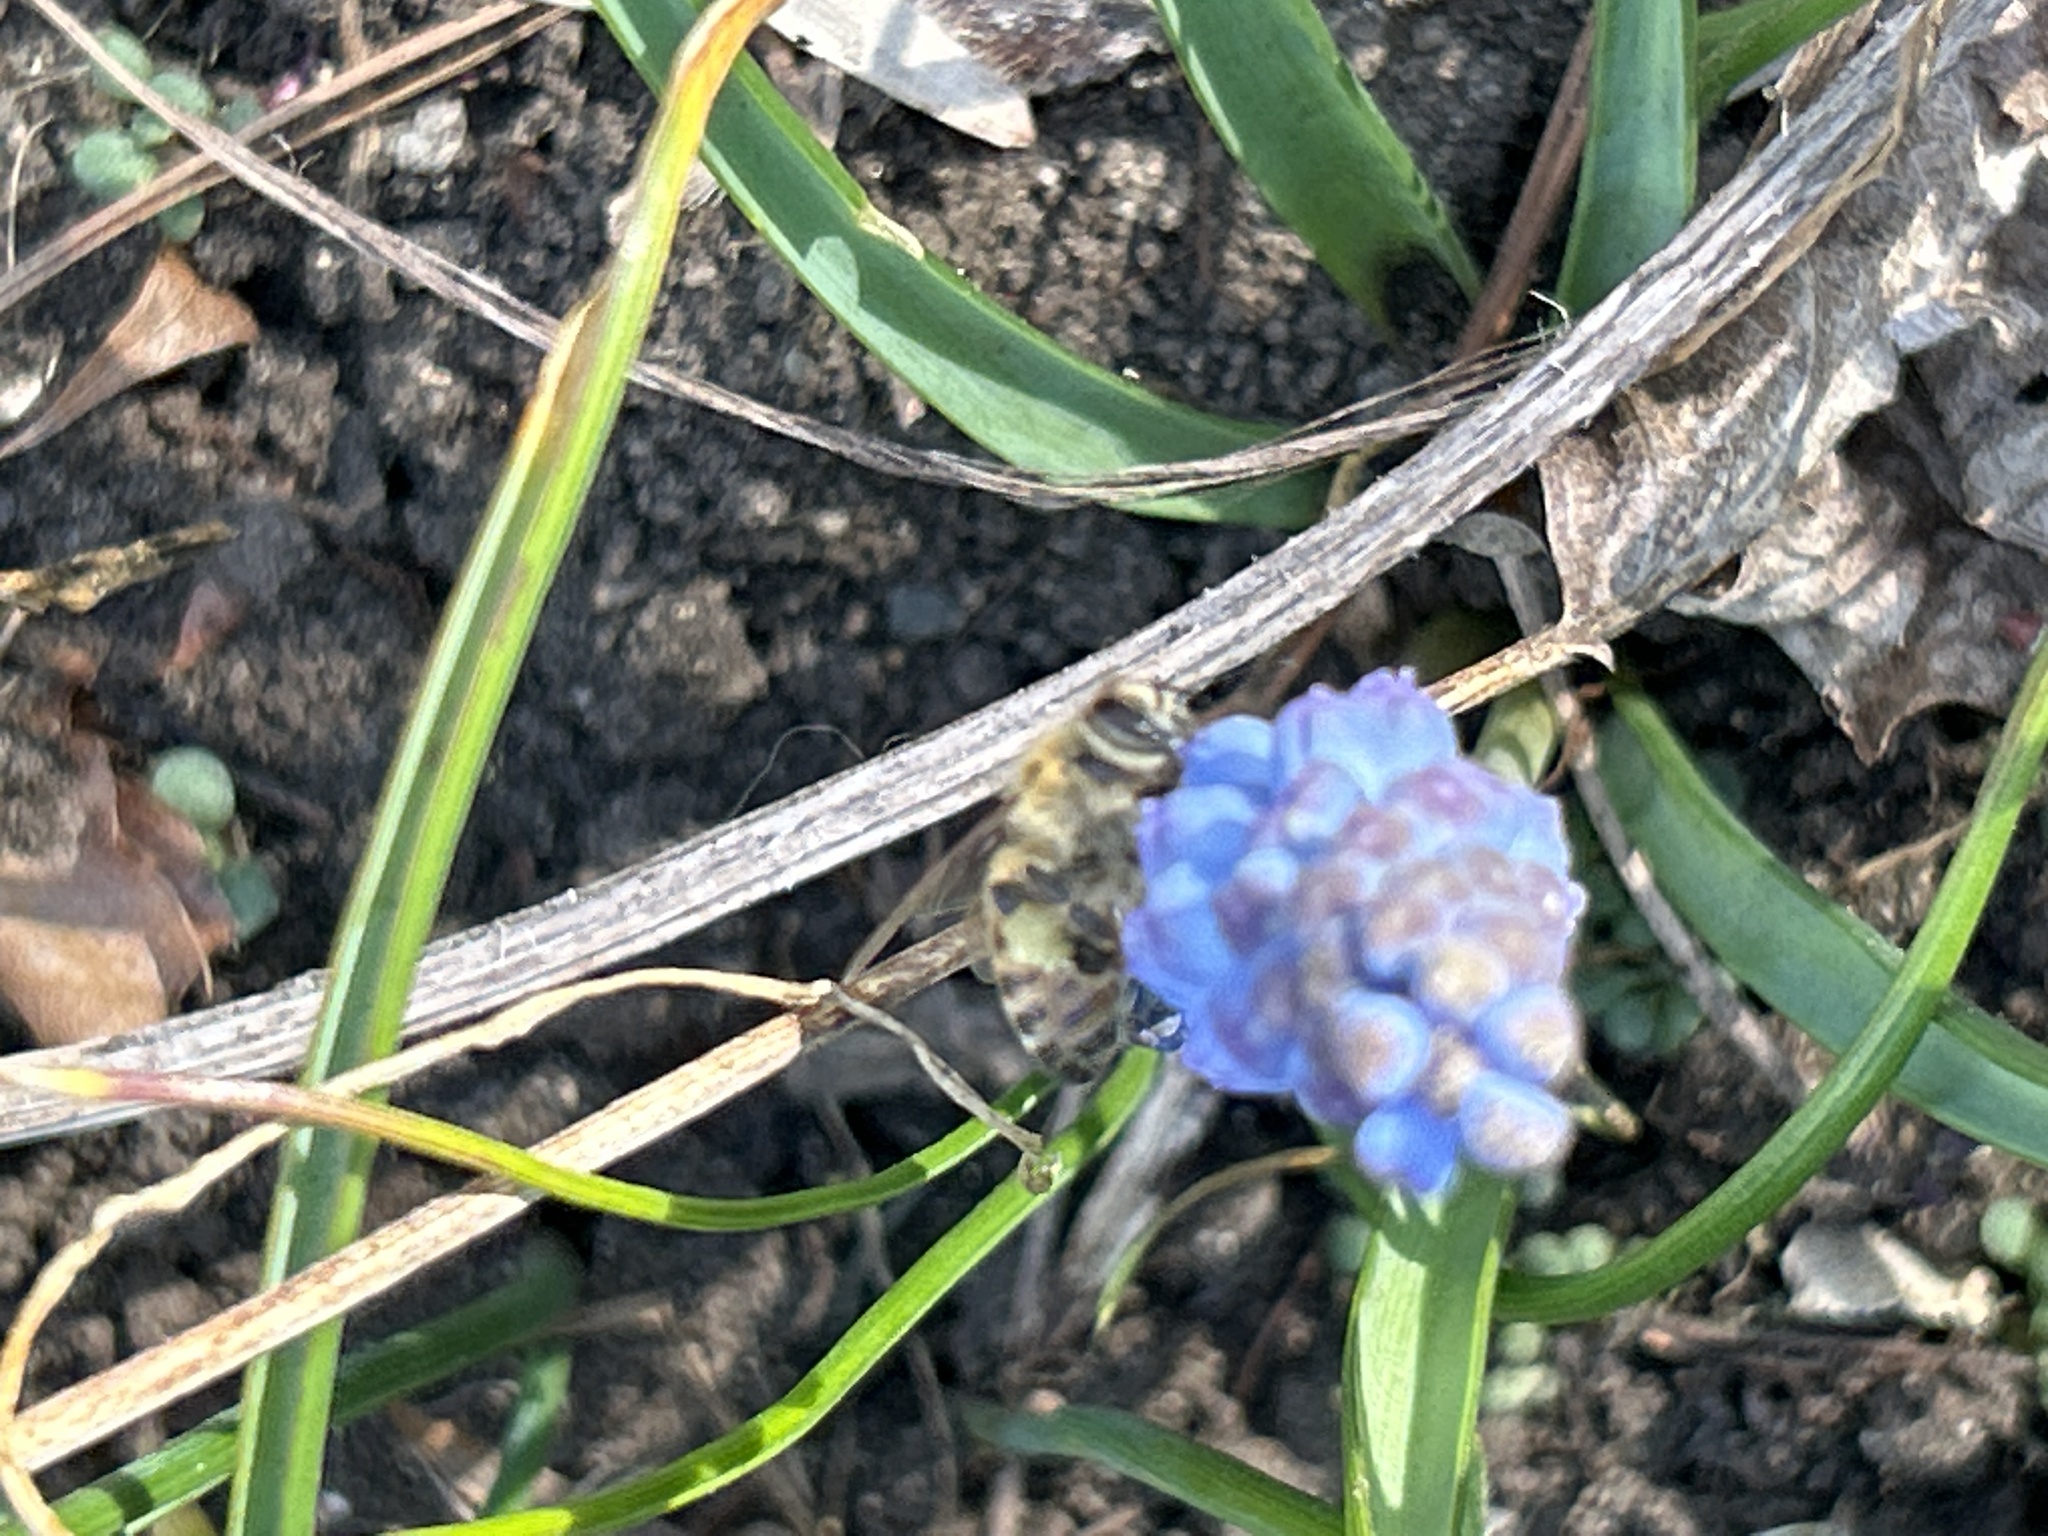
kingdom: Animalia
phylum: Arthropoda
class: Insecta
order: Hymenoptera
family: Apidae
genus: Apis
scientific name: Apis mellifera
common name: Honey bee
